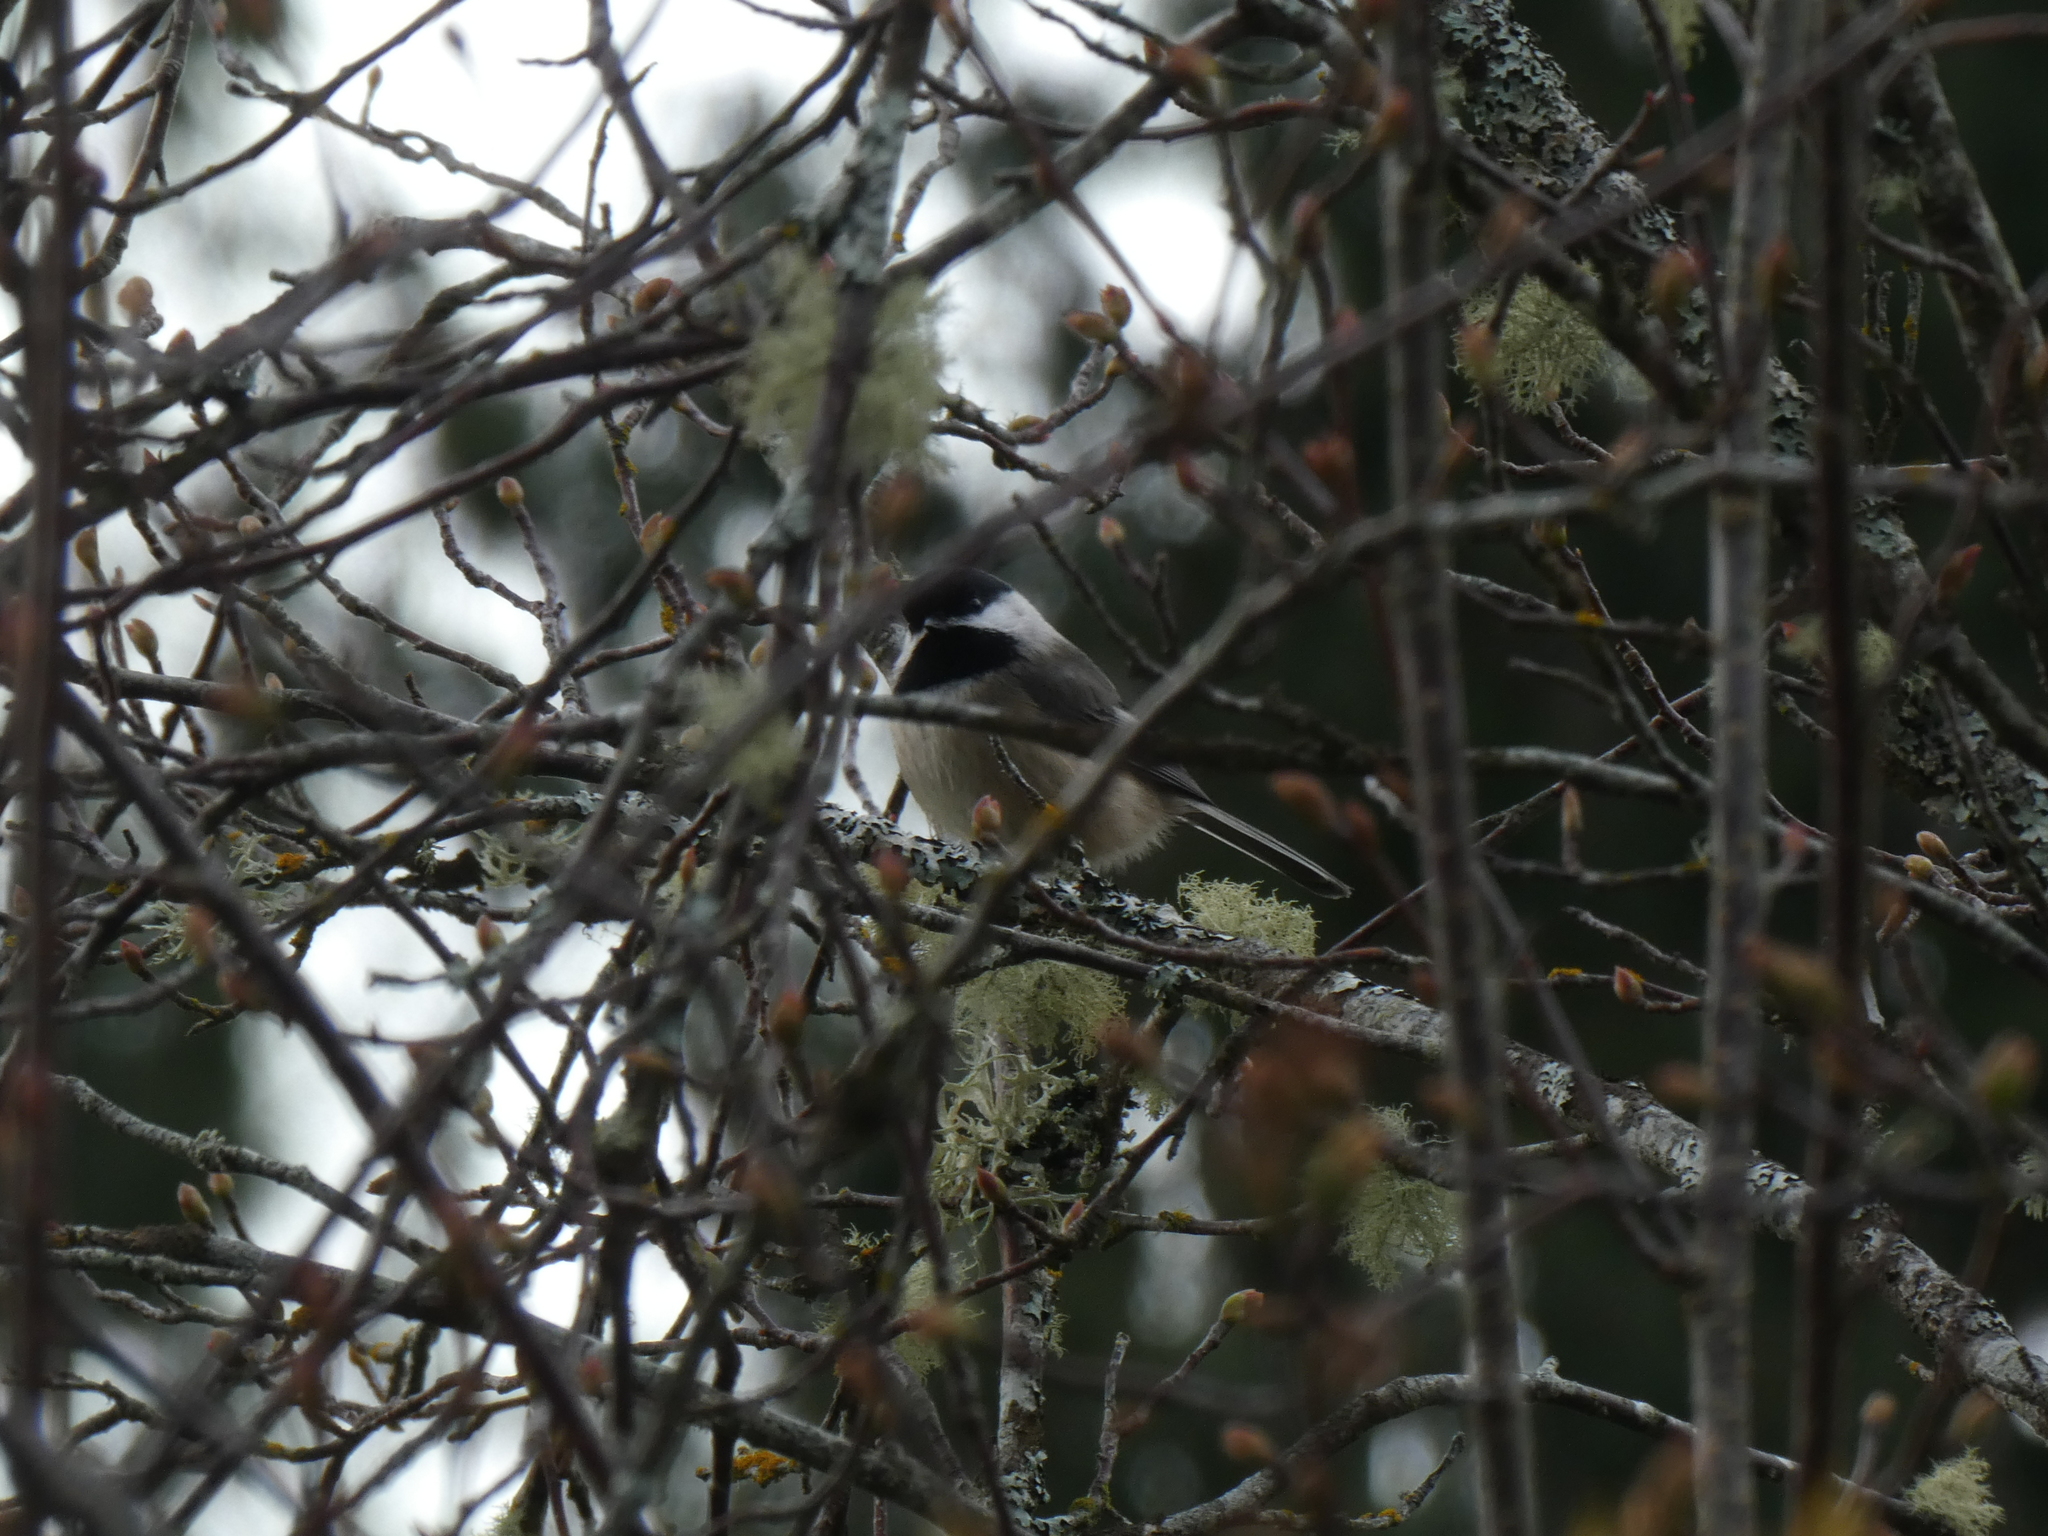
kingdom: Animalia
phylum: Chordata
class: Aves
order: Passeriformes
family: Paridae
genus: Poecile
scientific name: Poecile atricapillus
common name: Black-capped chickadee
